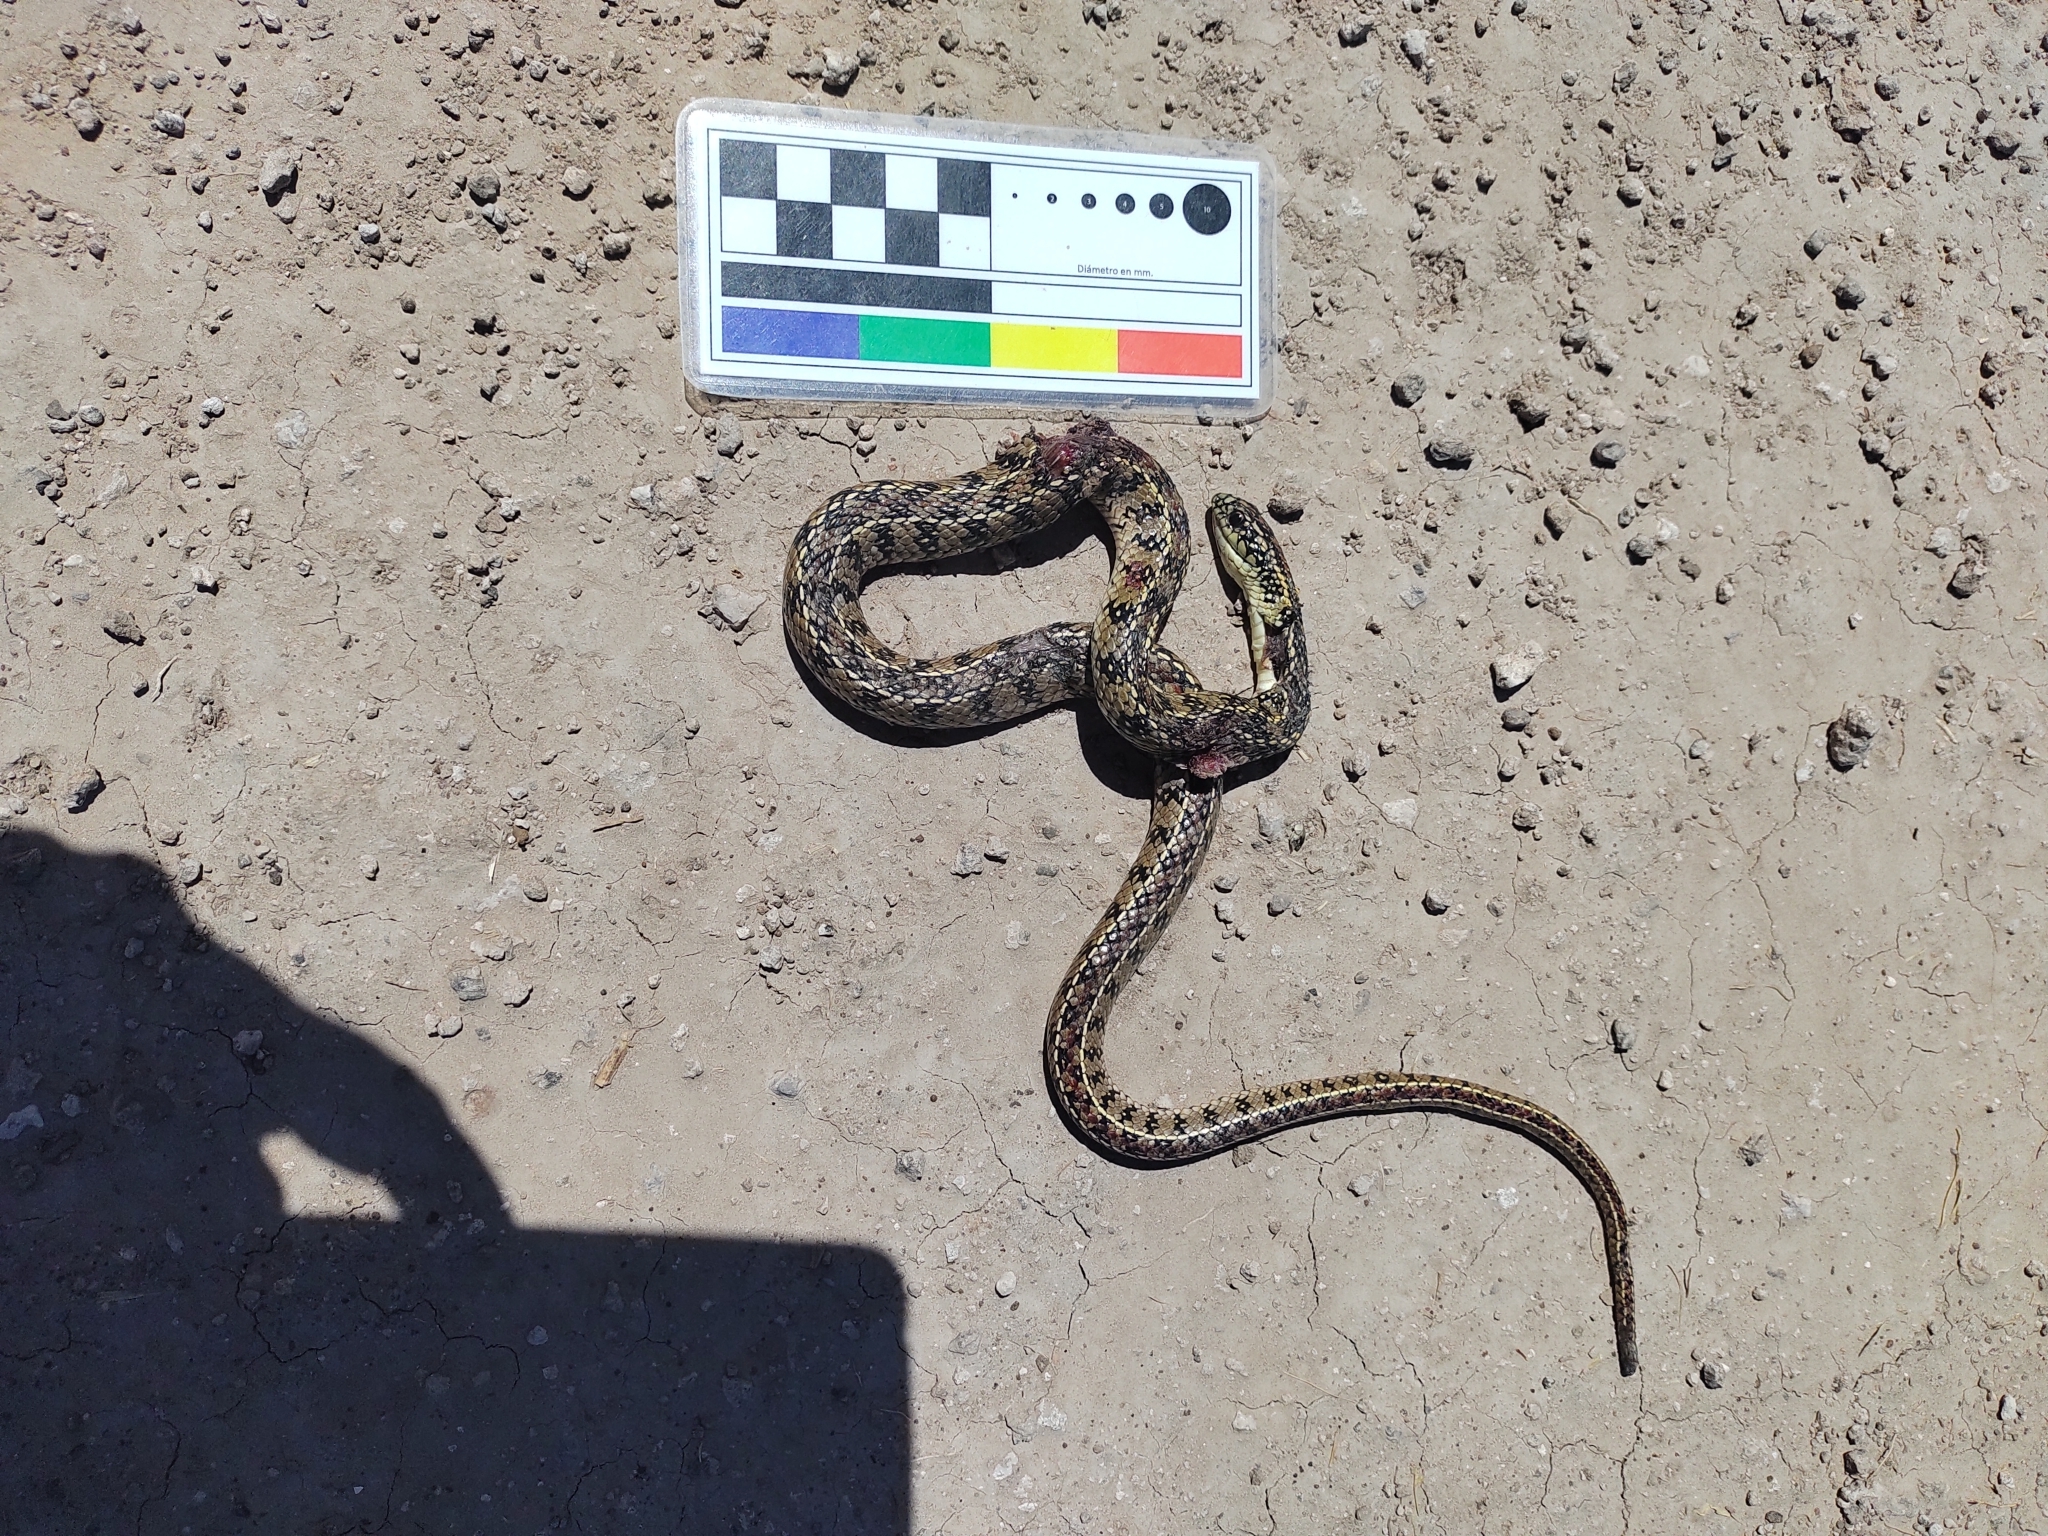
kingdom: Animalia
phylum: Chordata
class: Squamata
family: Colubridae
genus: Lygophis
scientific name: Lygophis anomalus
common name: English common name not available
